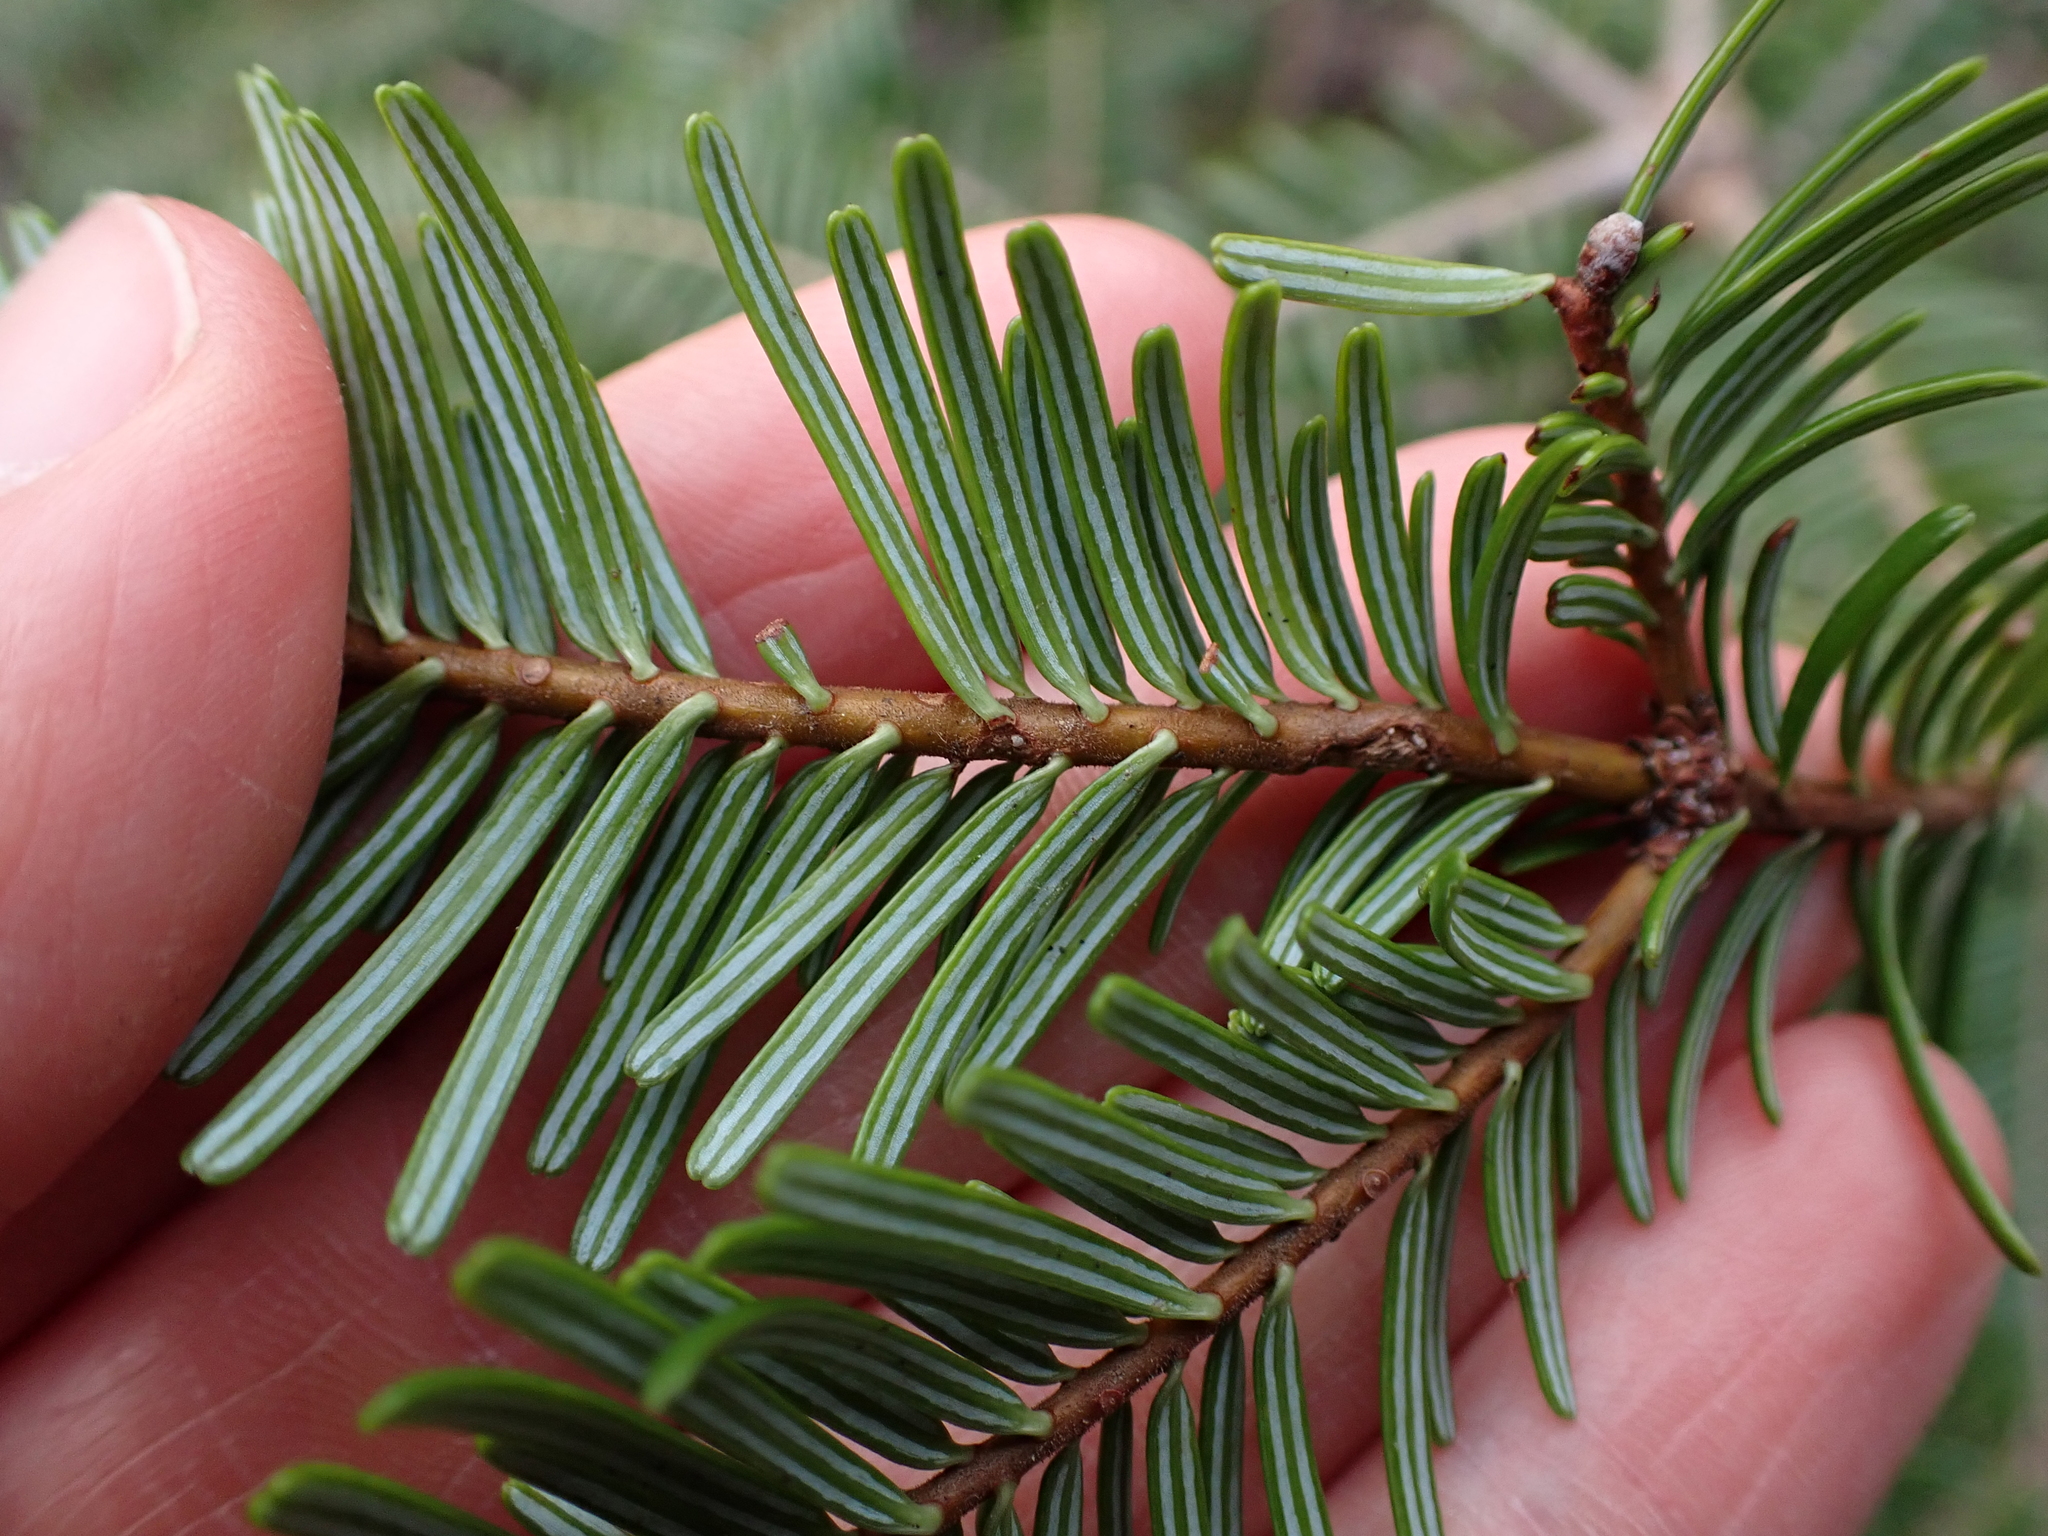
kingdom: Plantae
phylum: Tracheophyta
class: Pinopsida
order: Pinales
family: Pinaceae
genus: Abies
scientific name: Abies grandis
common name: Giant fir
